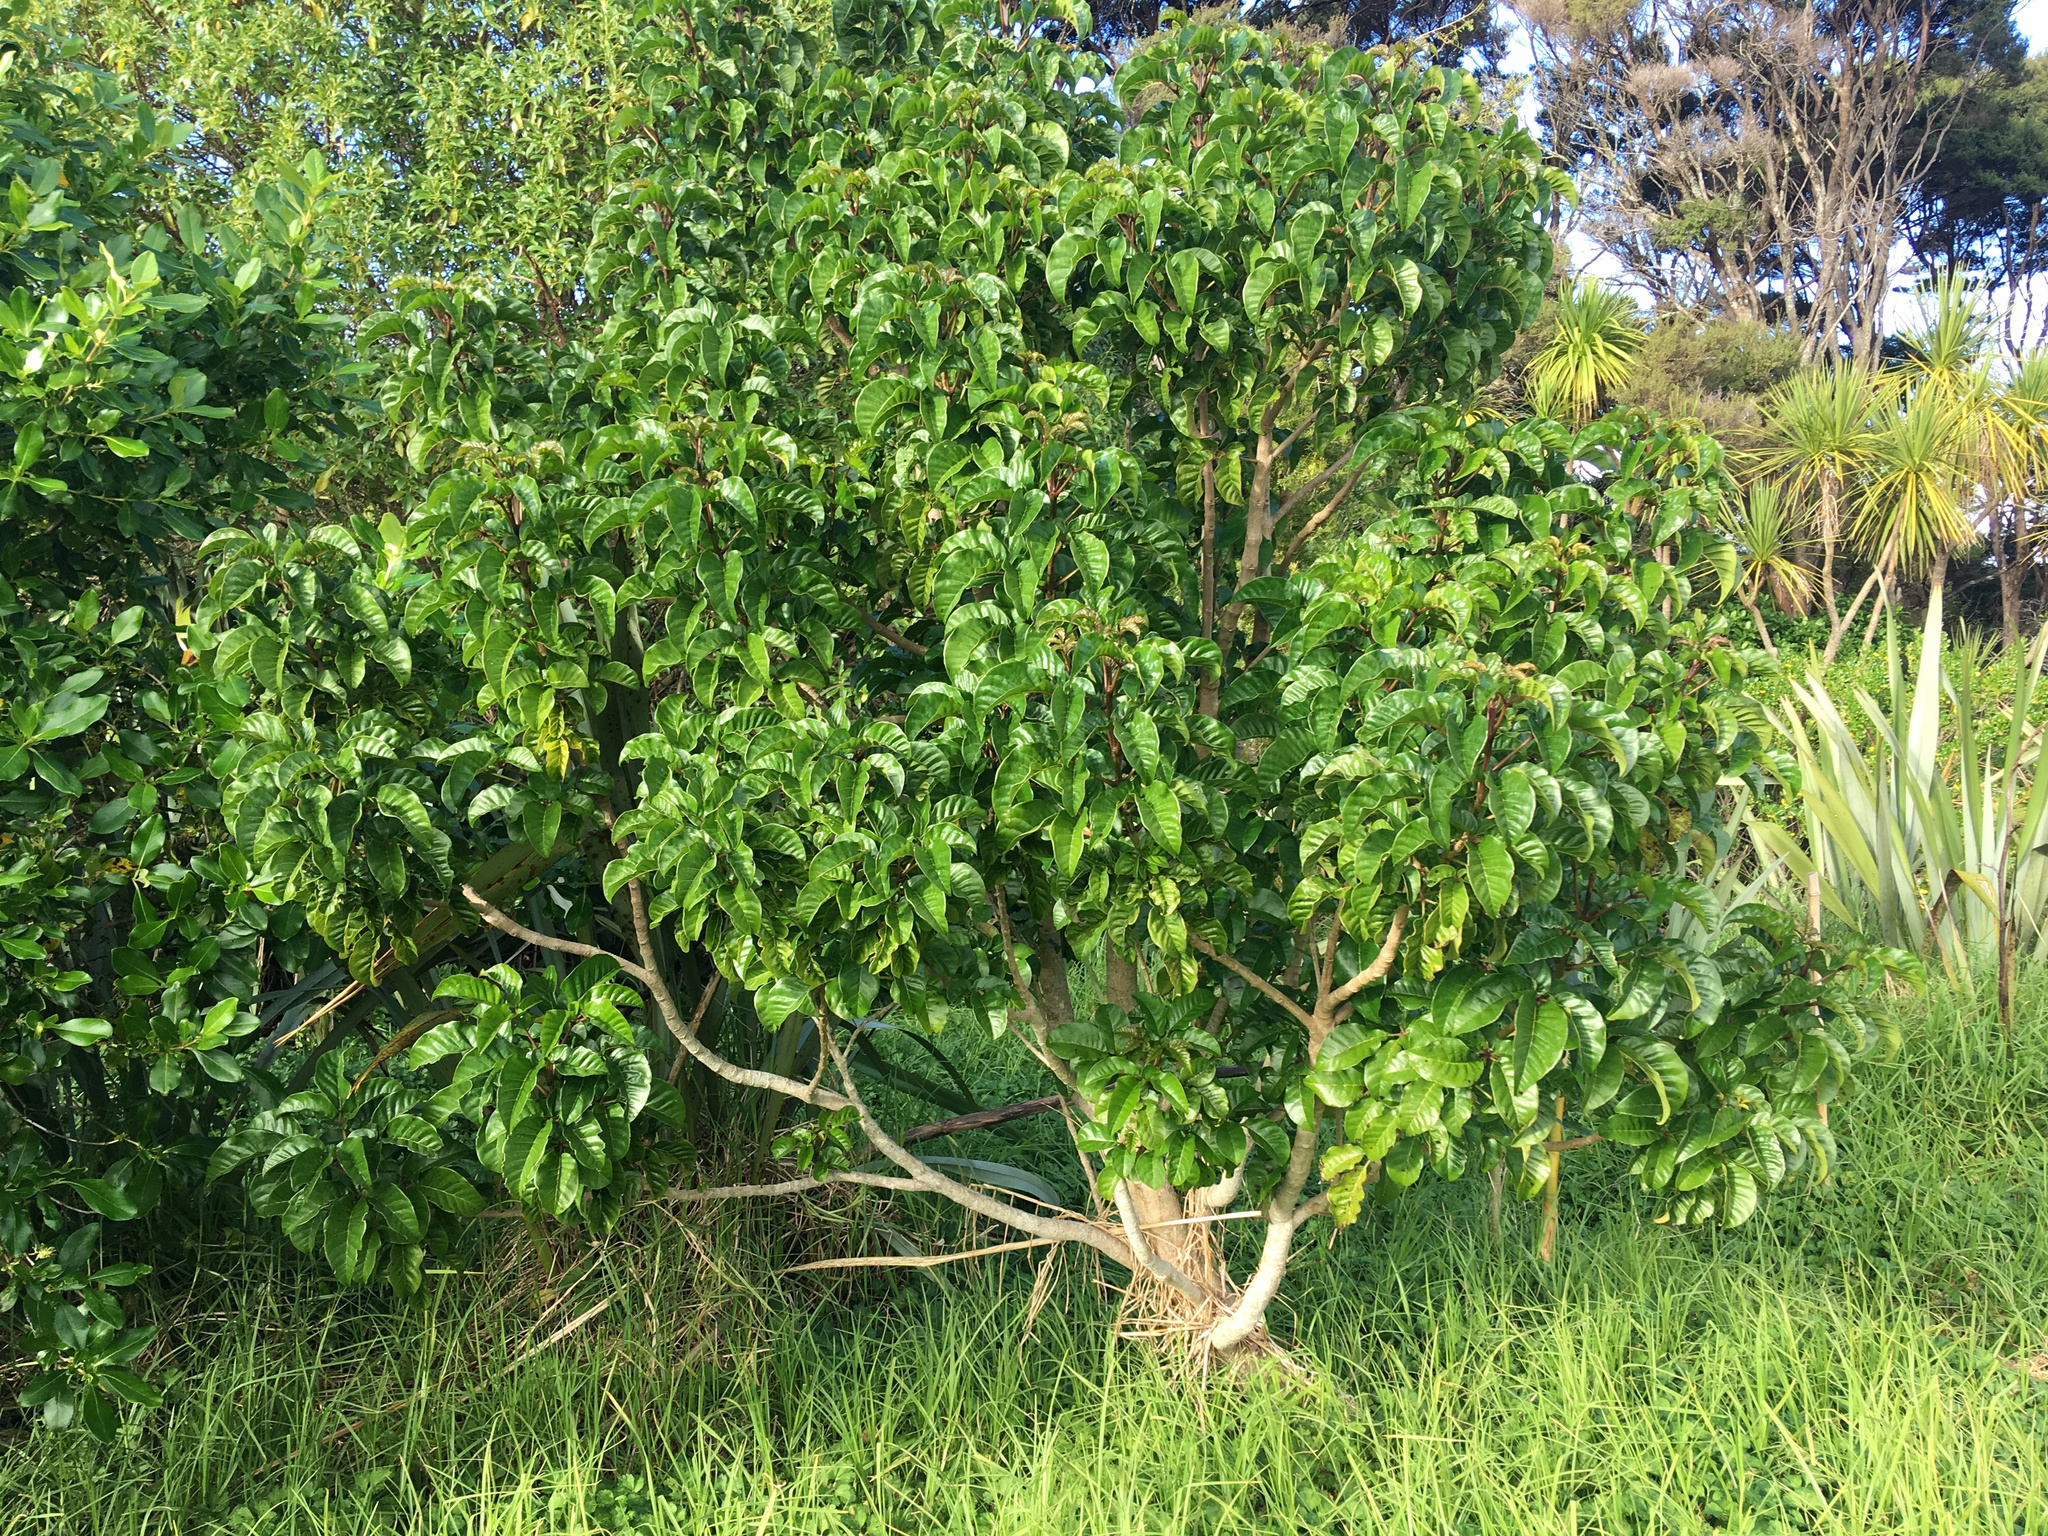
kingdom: Plantae
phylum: Tracheophyta
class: Magnoliopsida
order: Lamiales
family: Lamiaceae
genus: Vitex
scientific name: Vitex lucens
